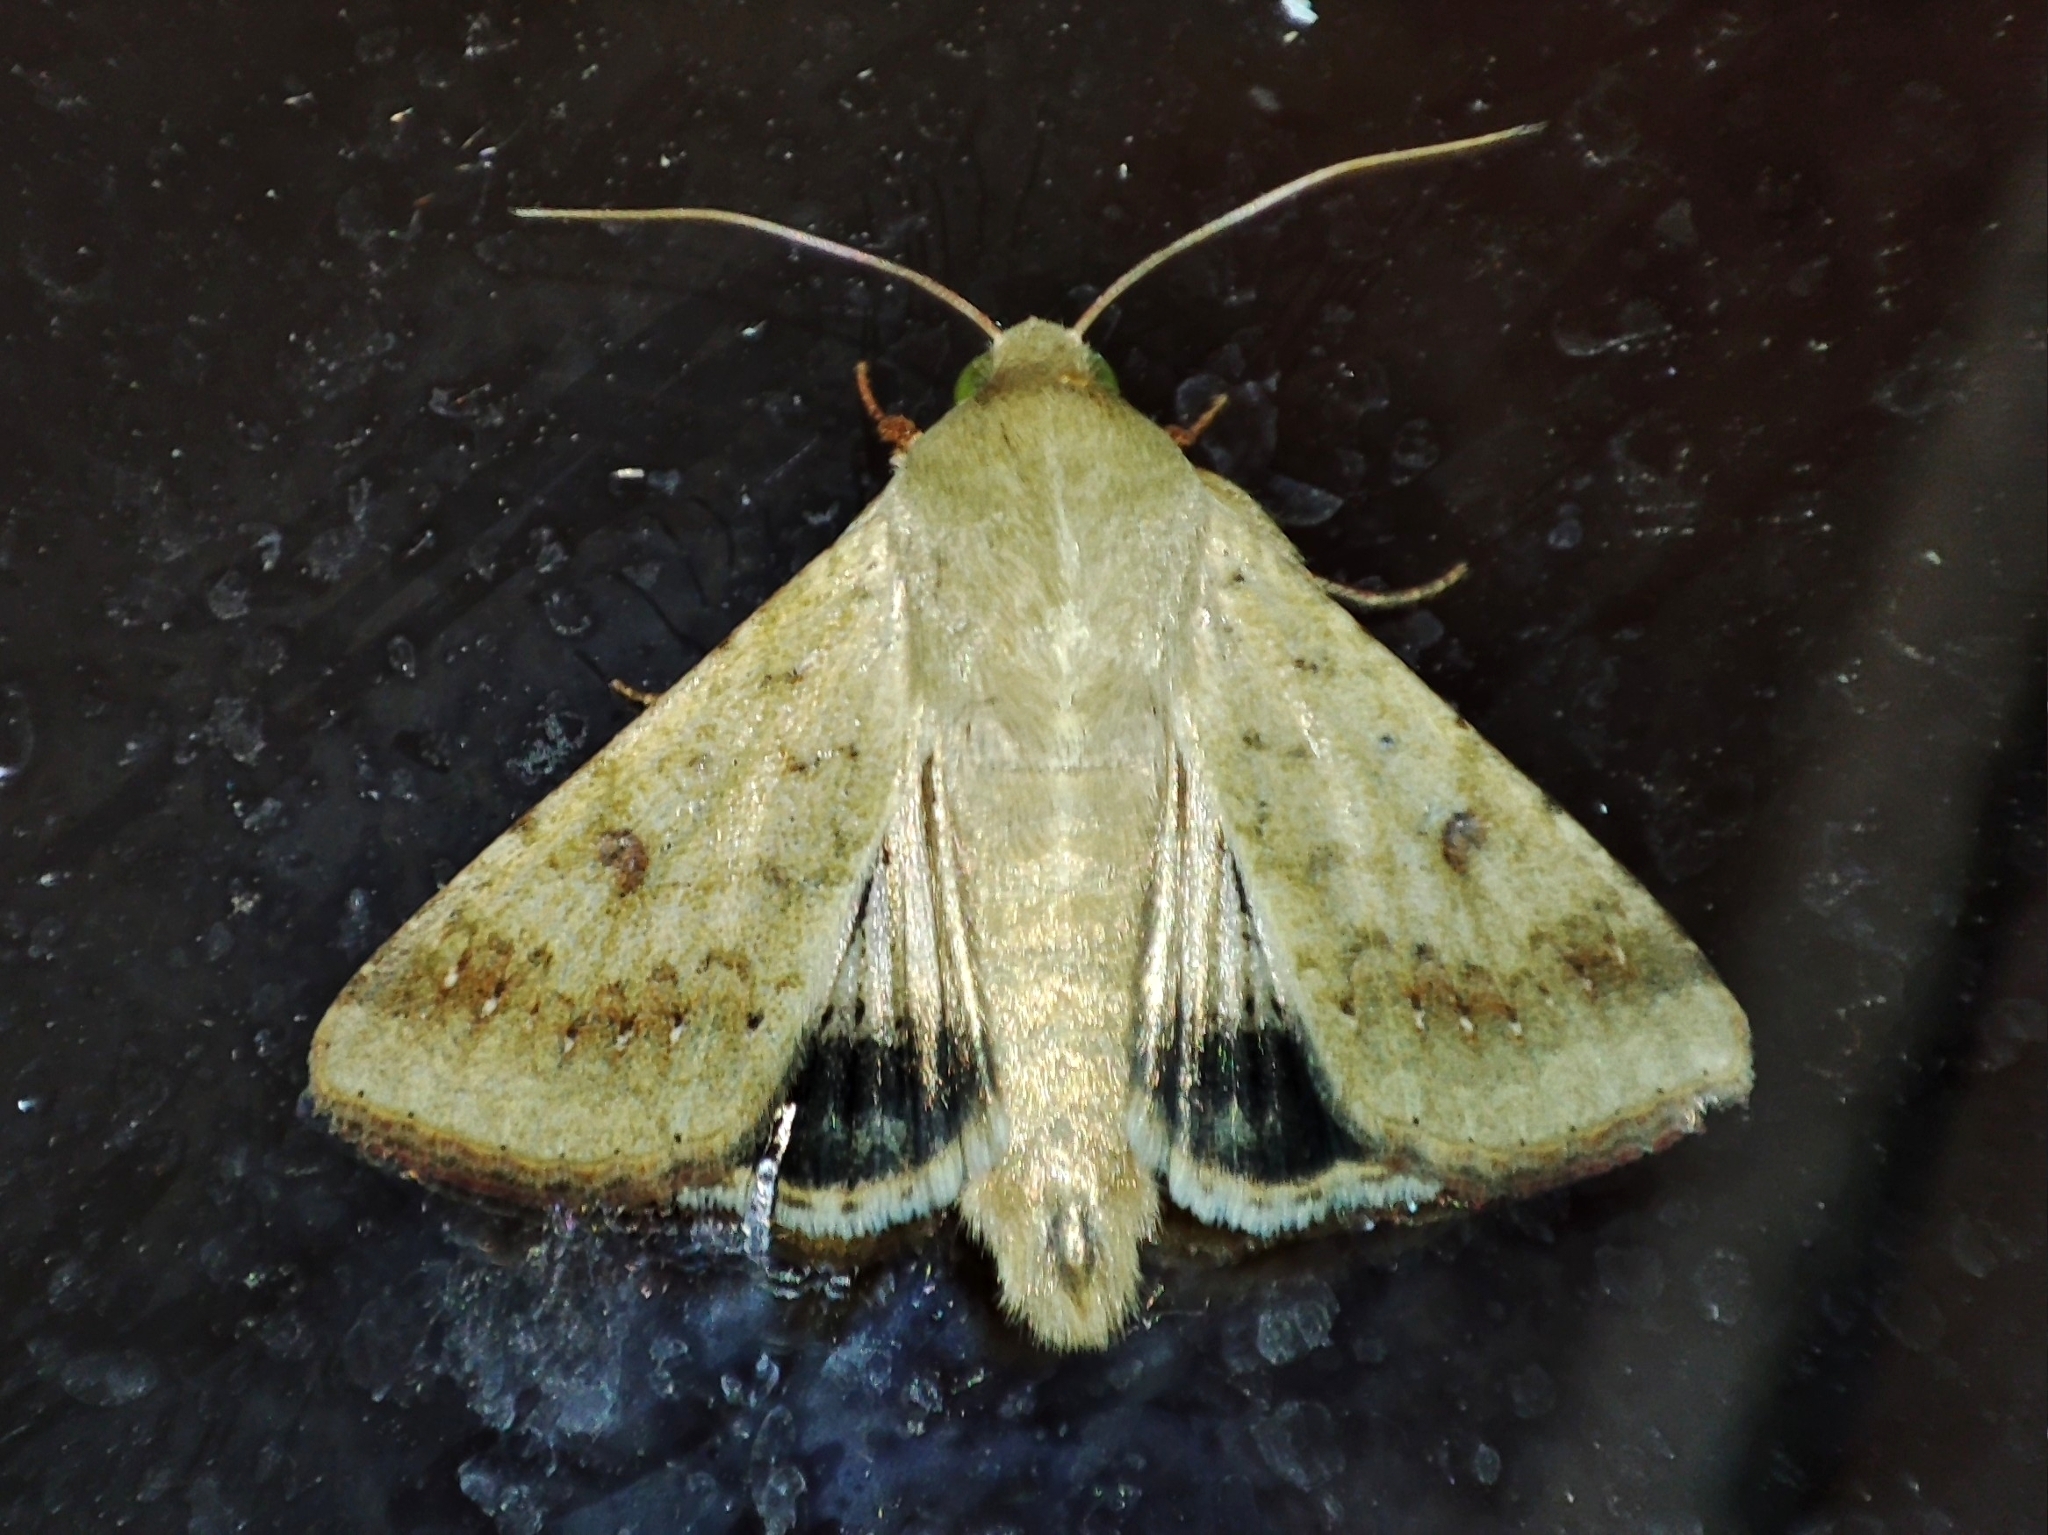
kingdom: Animalia
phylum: Arthropoda
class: Insecta
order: Lepidoptera
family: Noctuidae
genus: Helicoverpa
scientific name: Helicoverpa armigera
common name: Cotton bollworm
